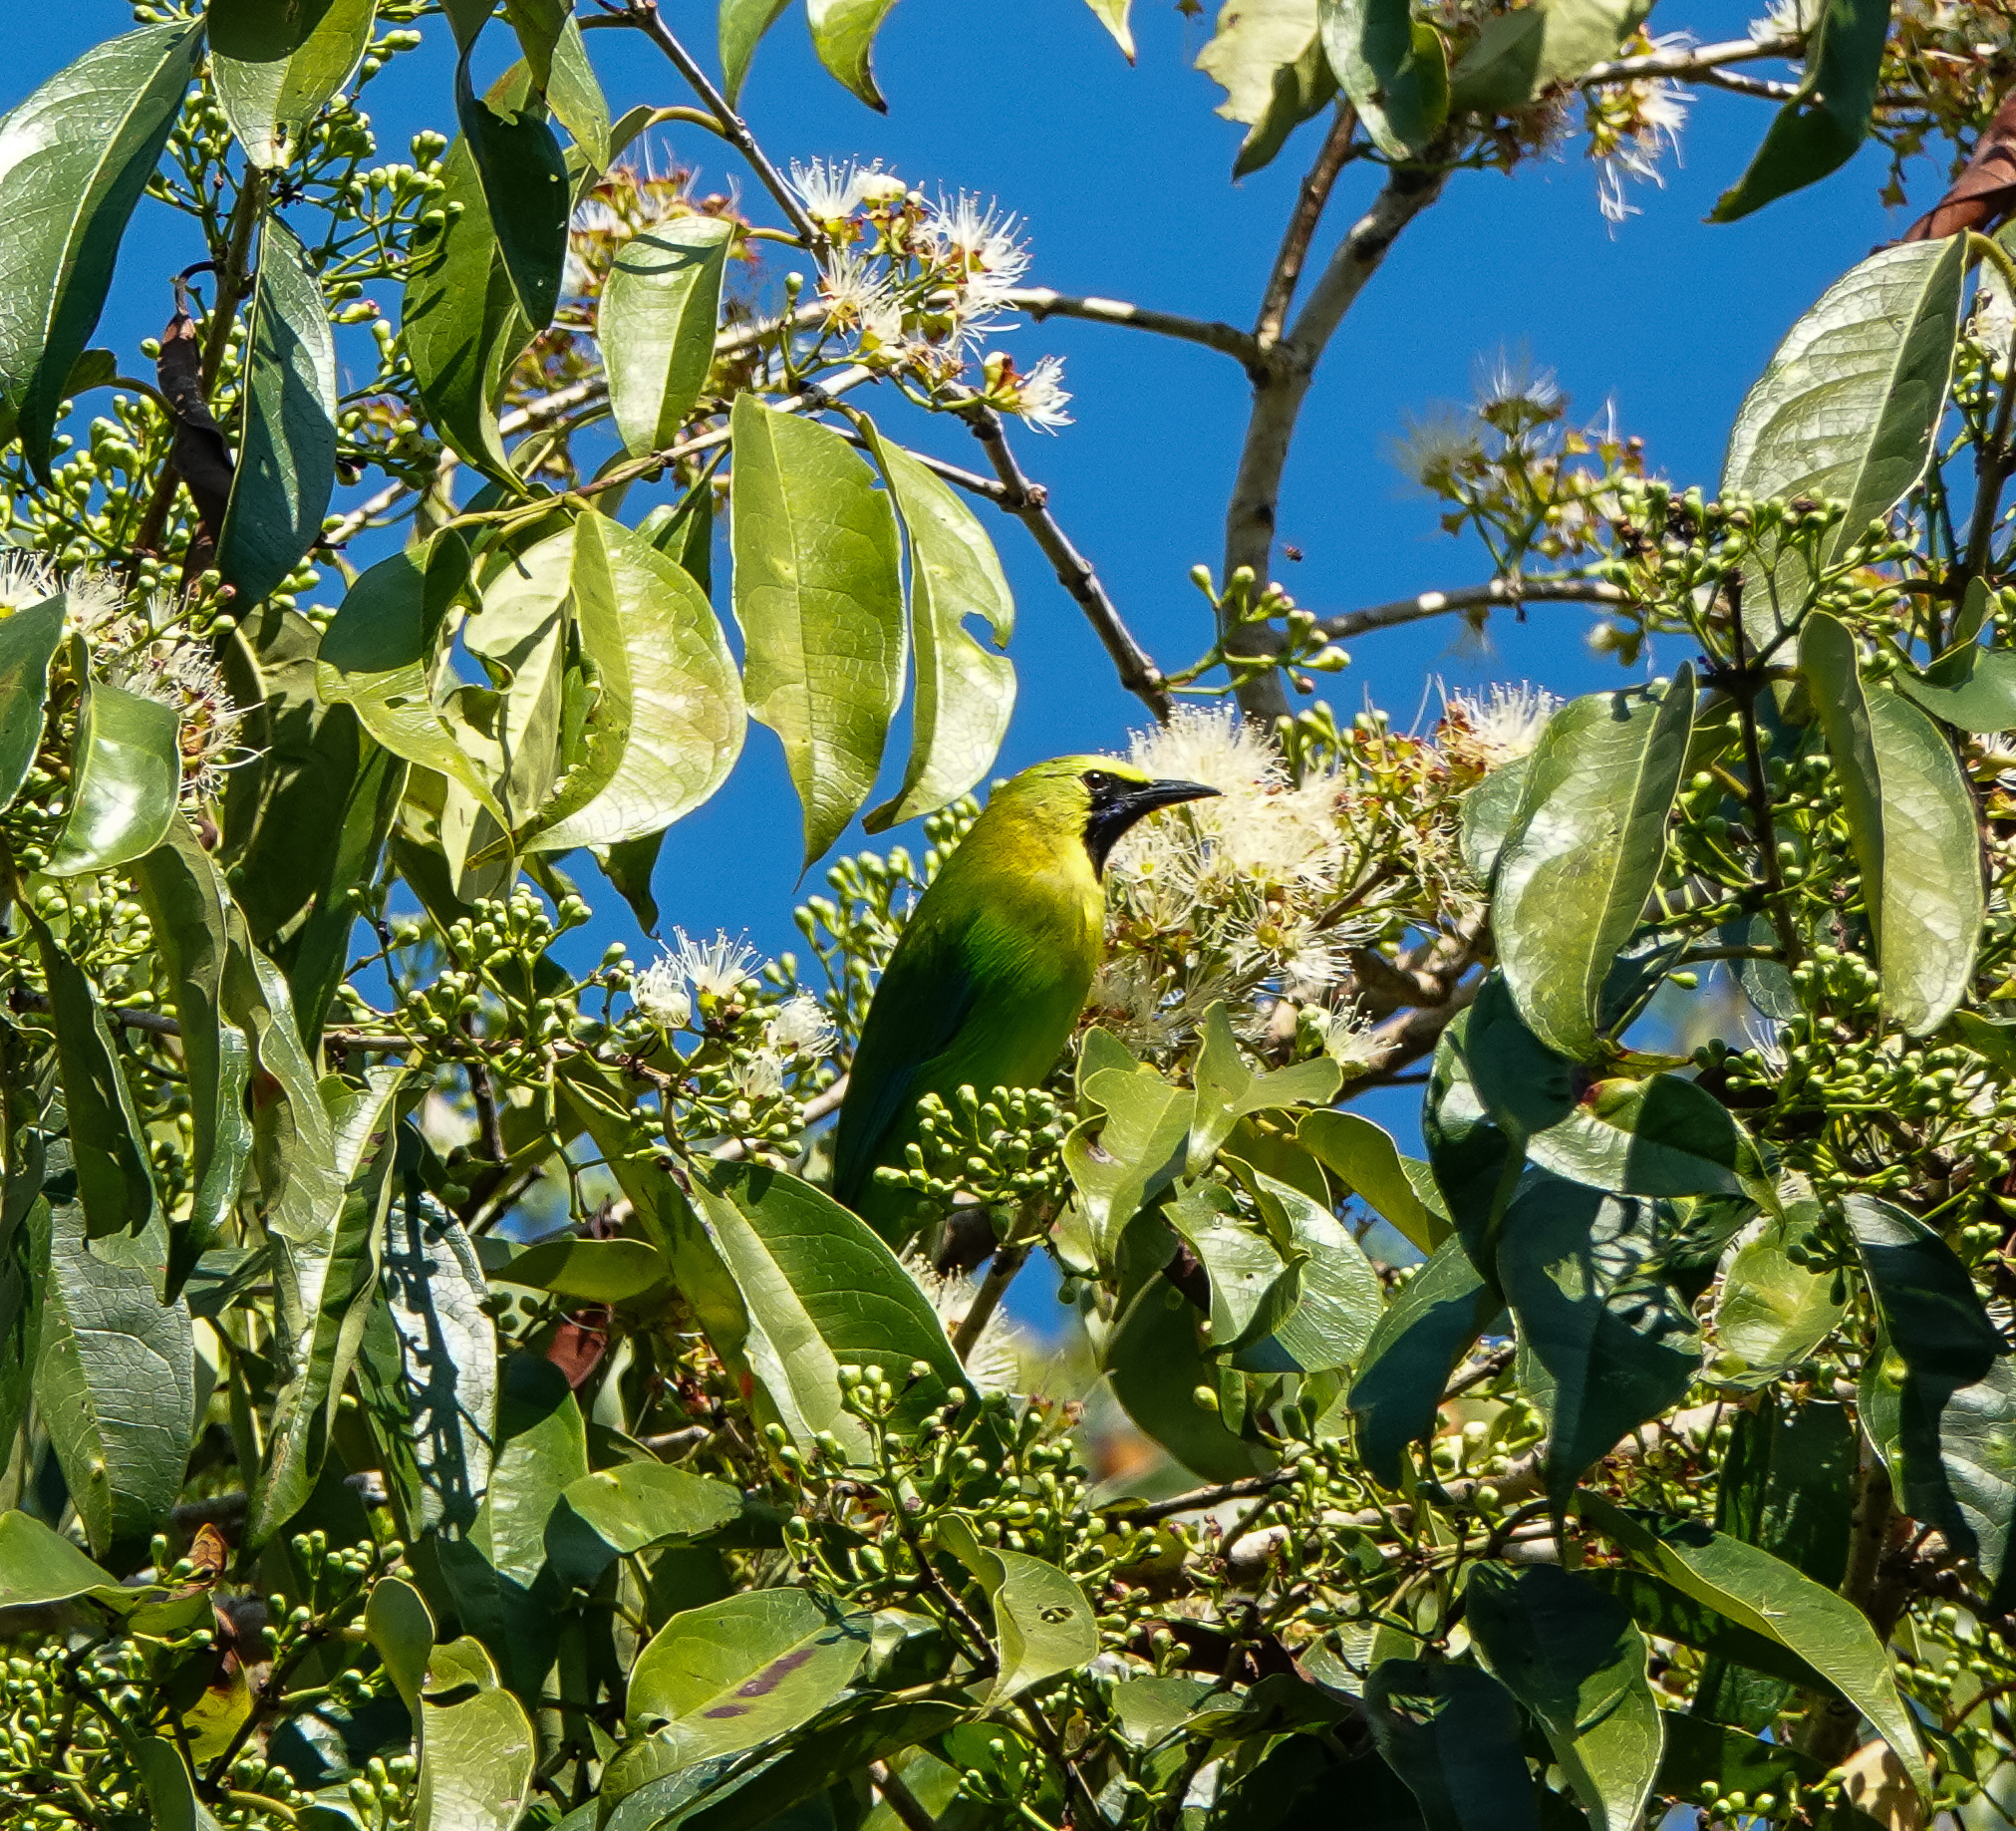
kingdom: Animalia
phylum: Chordata
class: Aves
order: Passeriformes
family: Chloropseidae
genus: Chloropsis
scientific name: Chloropsis moluccensis
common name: Blue-winged leafbird
